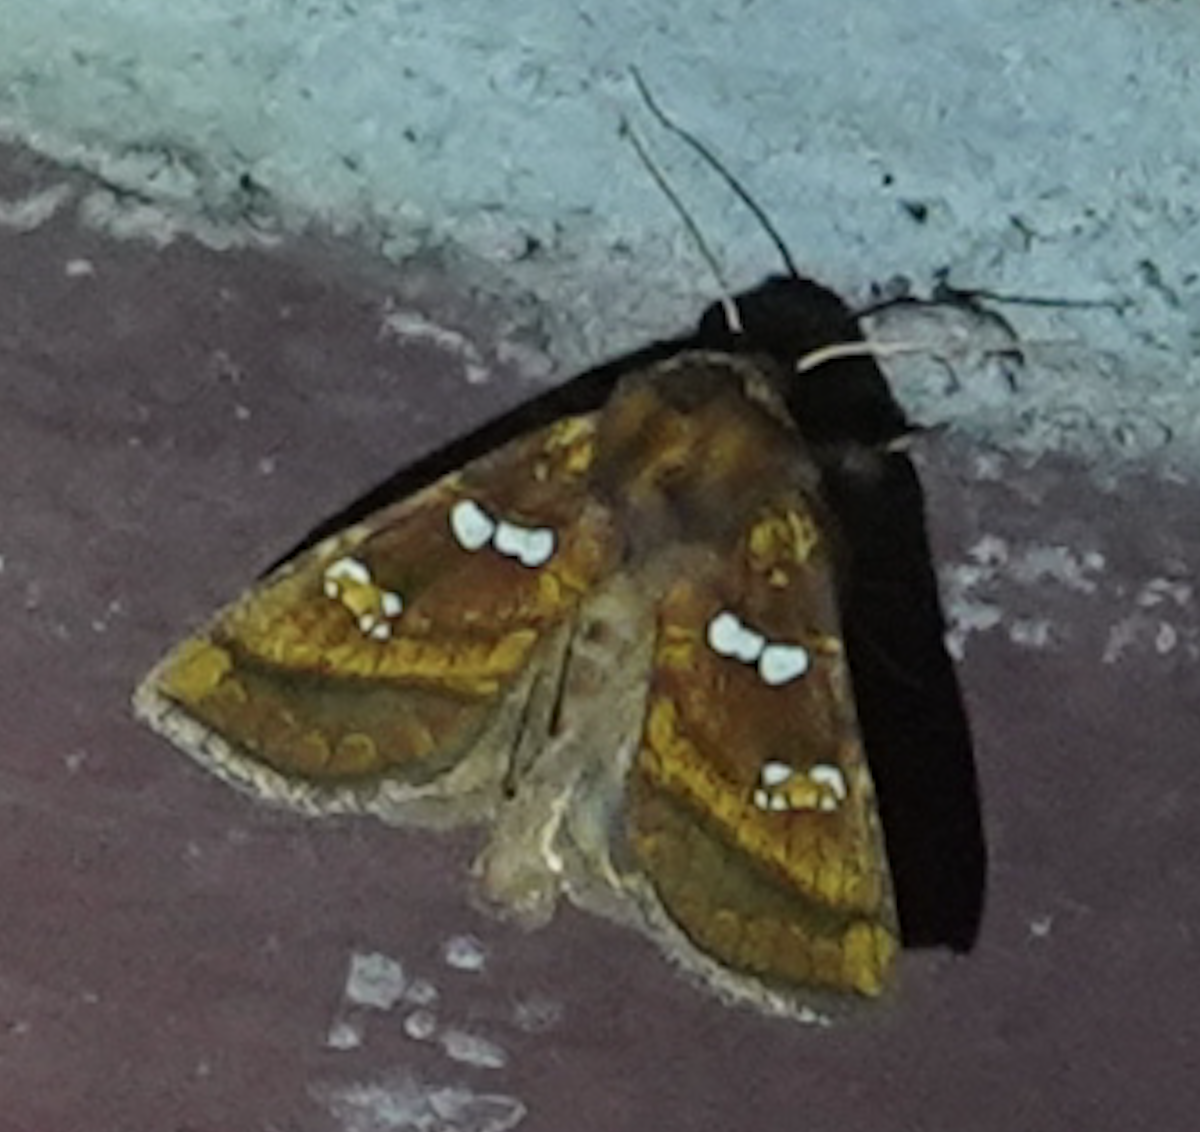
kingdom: Animalia
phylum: Arthropoda
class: Insecta
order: Lepidoptera
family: Noctuidae
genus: Papaipema
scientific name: Papaipema pterisii
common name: Bracken borer moth
